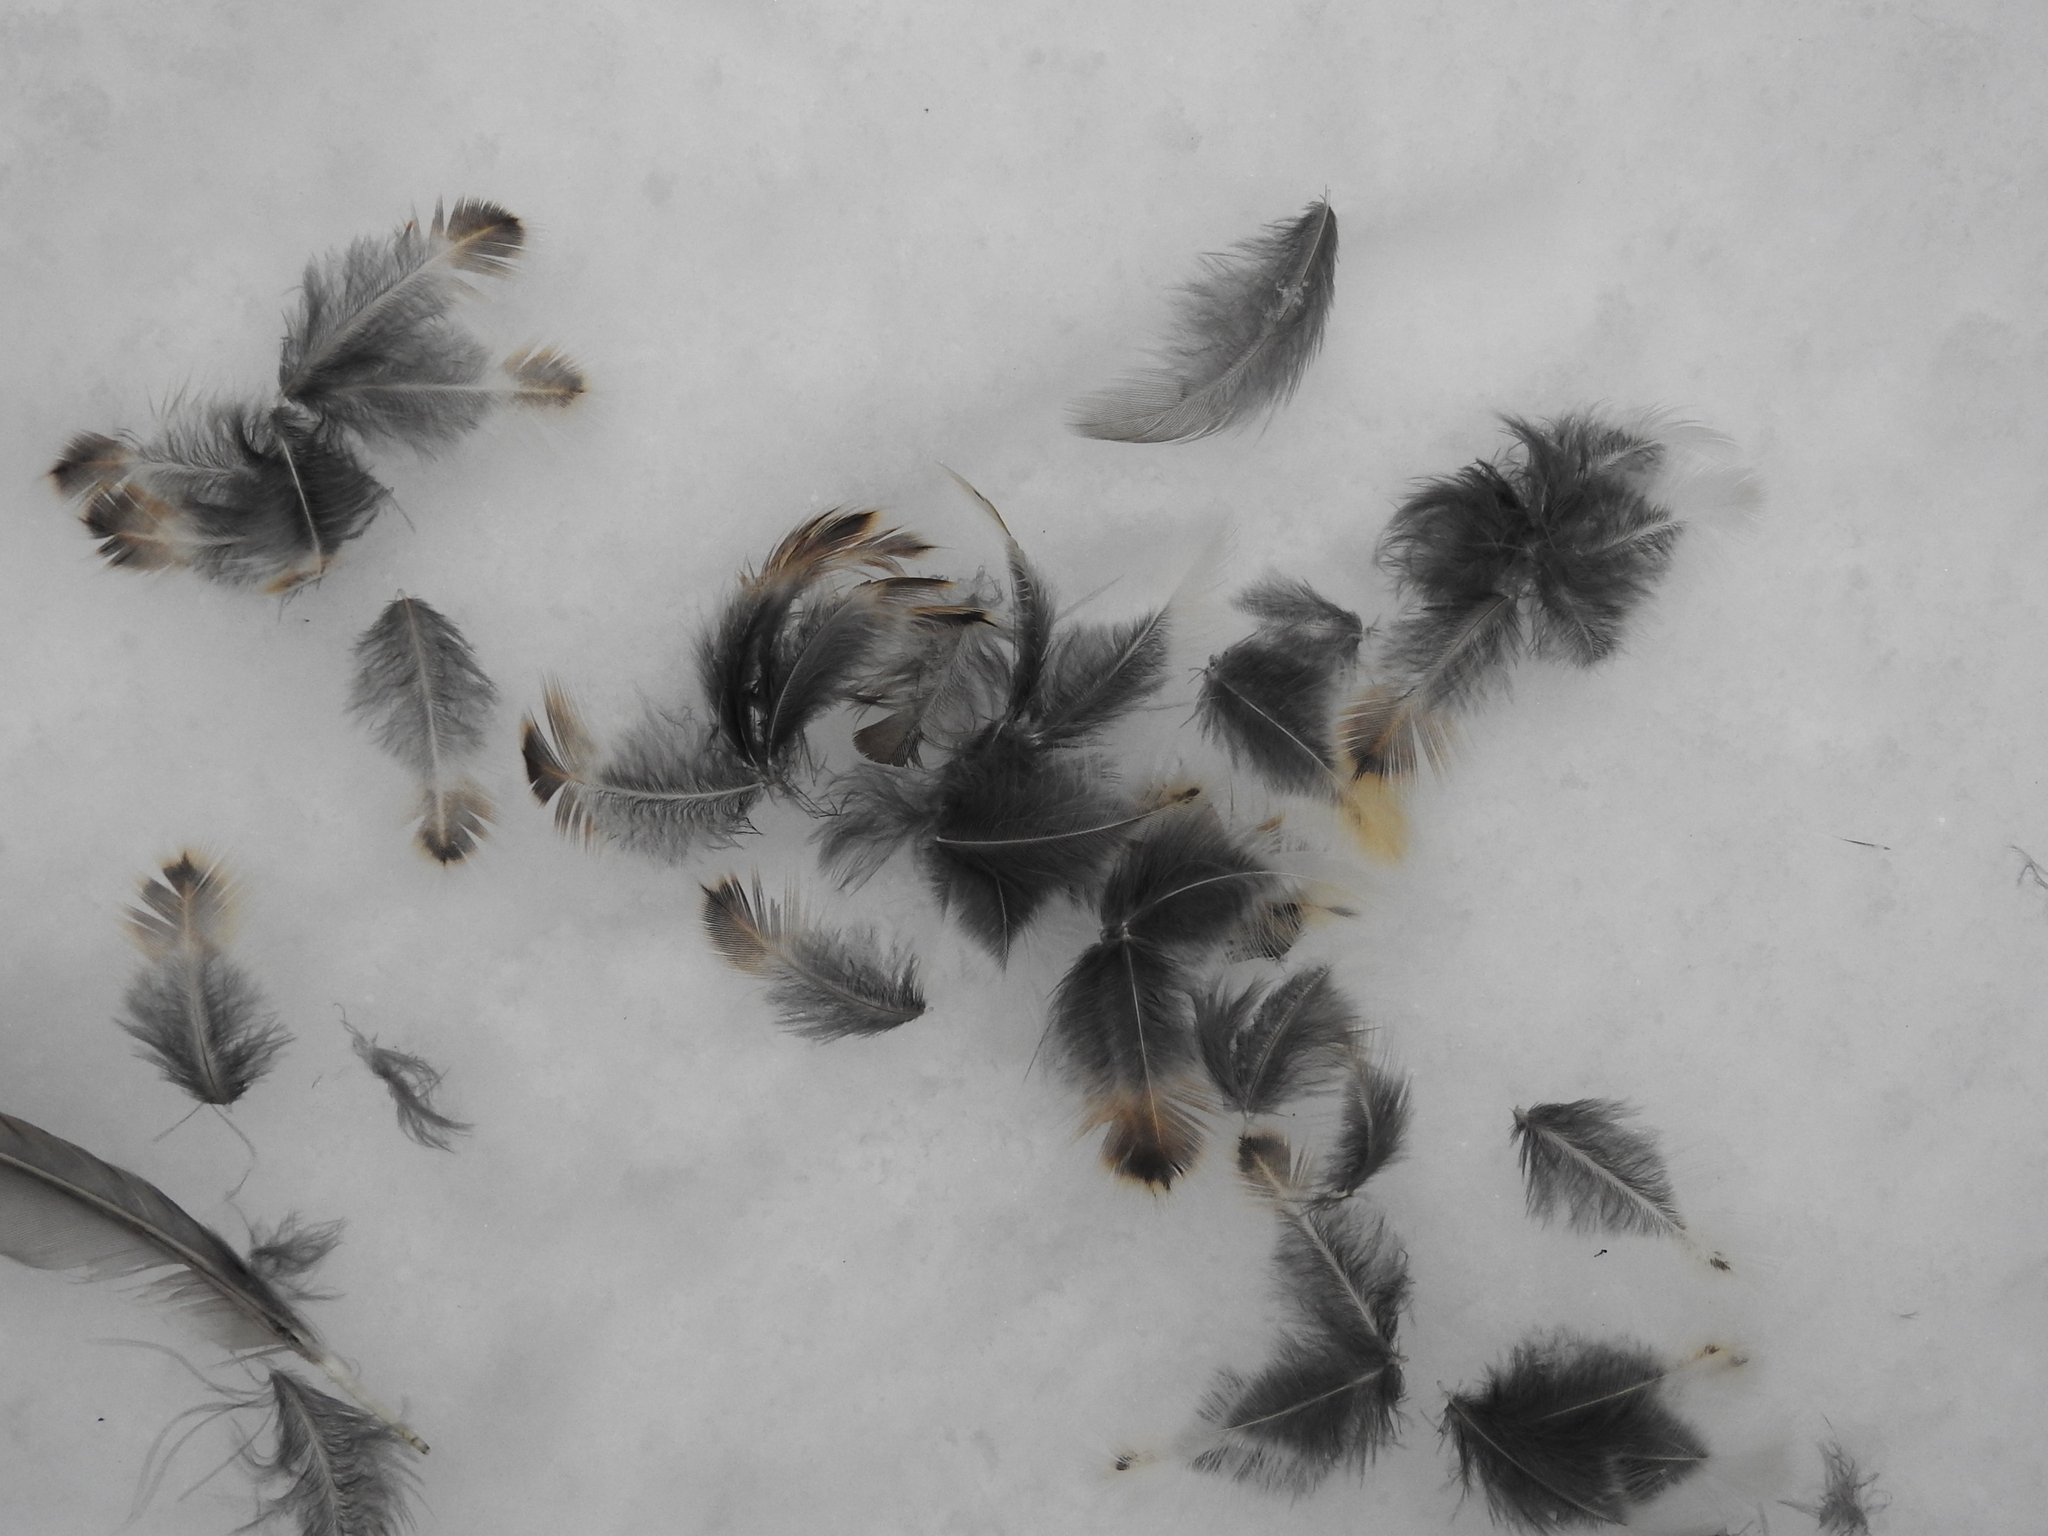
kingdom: Animalia
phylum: Chordata
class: Aves
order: Passeriformes
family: Turdidae
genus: Turdus
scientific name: Turdus pilaris
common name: Fieldfare
